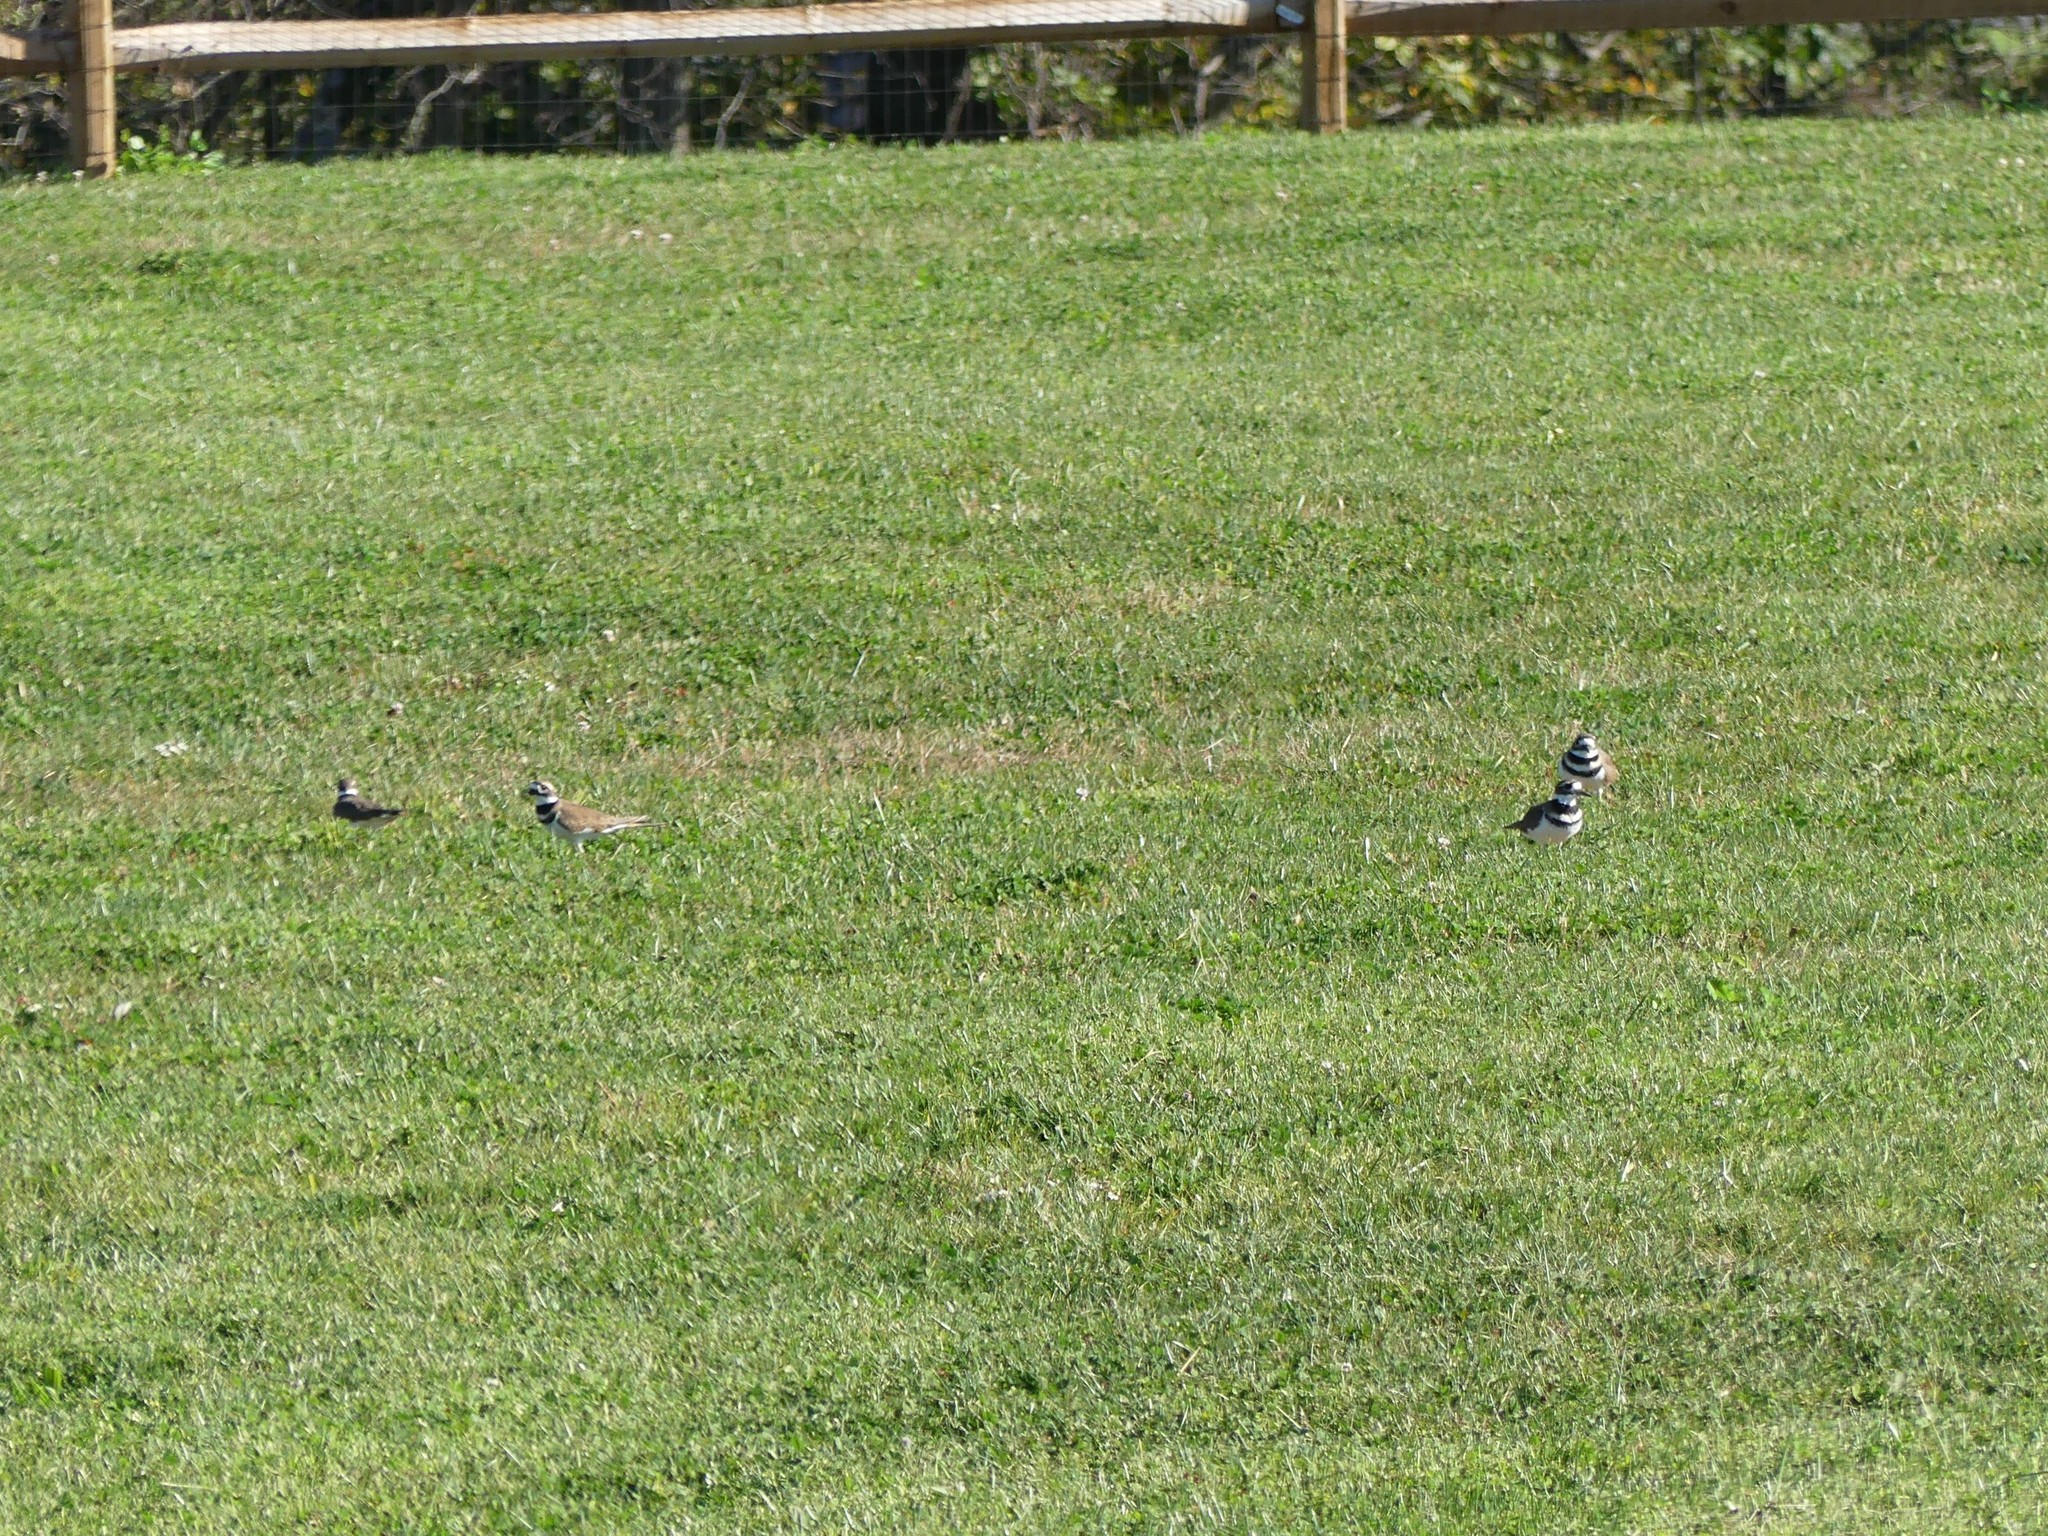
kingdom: Animalia
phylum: Chordata
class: Aves
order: Charadriiformes
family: Charadriidae
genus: Charadrius
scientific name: Charadrius vociferus
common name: Killdeer
